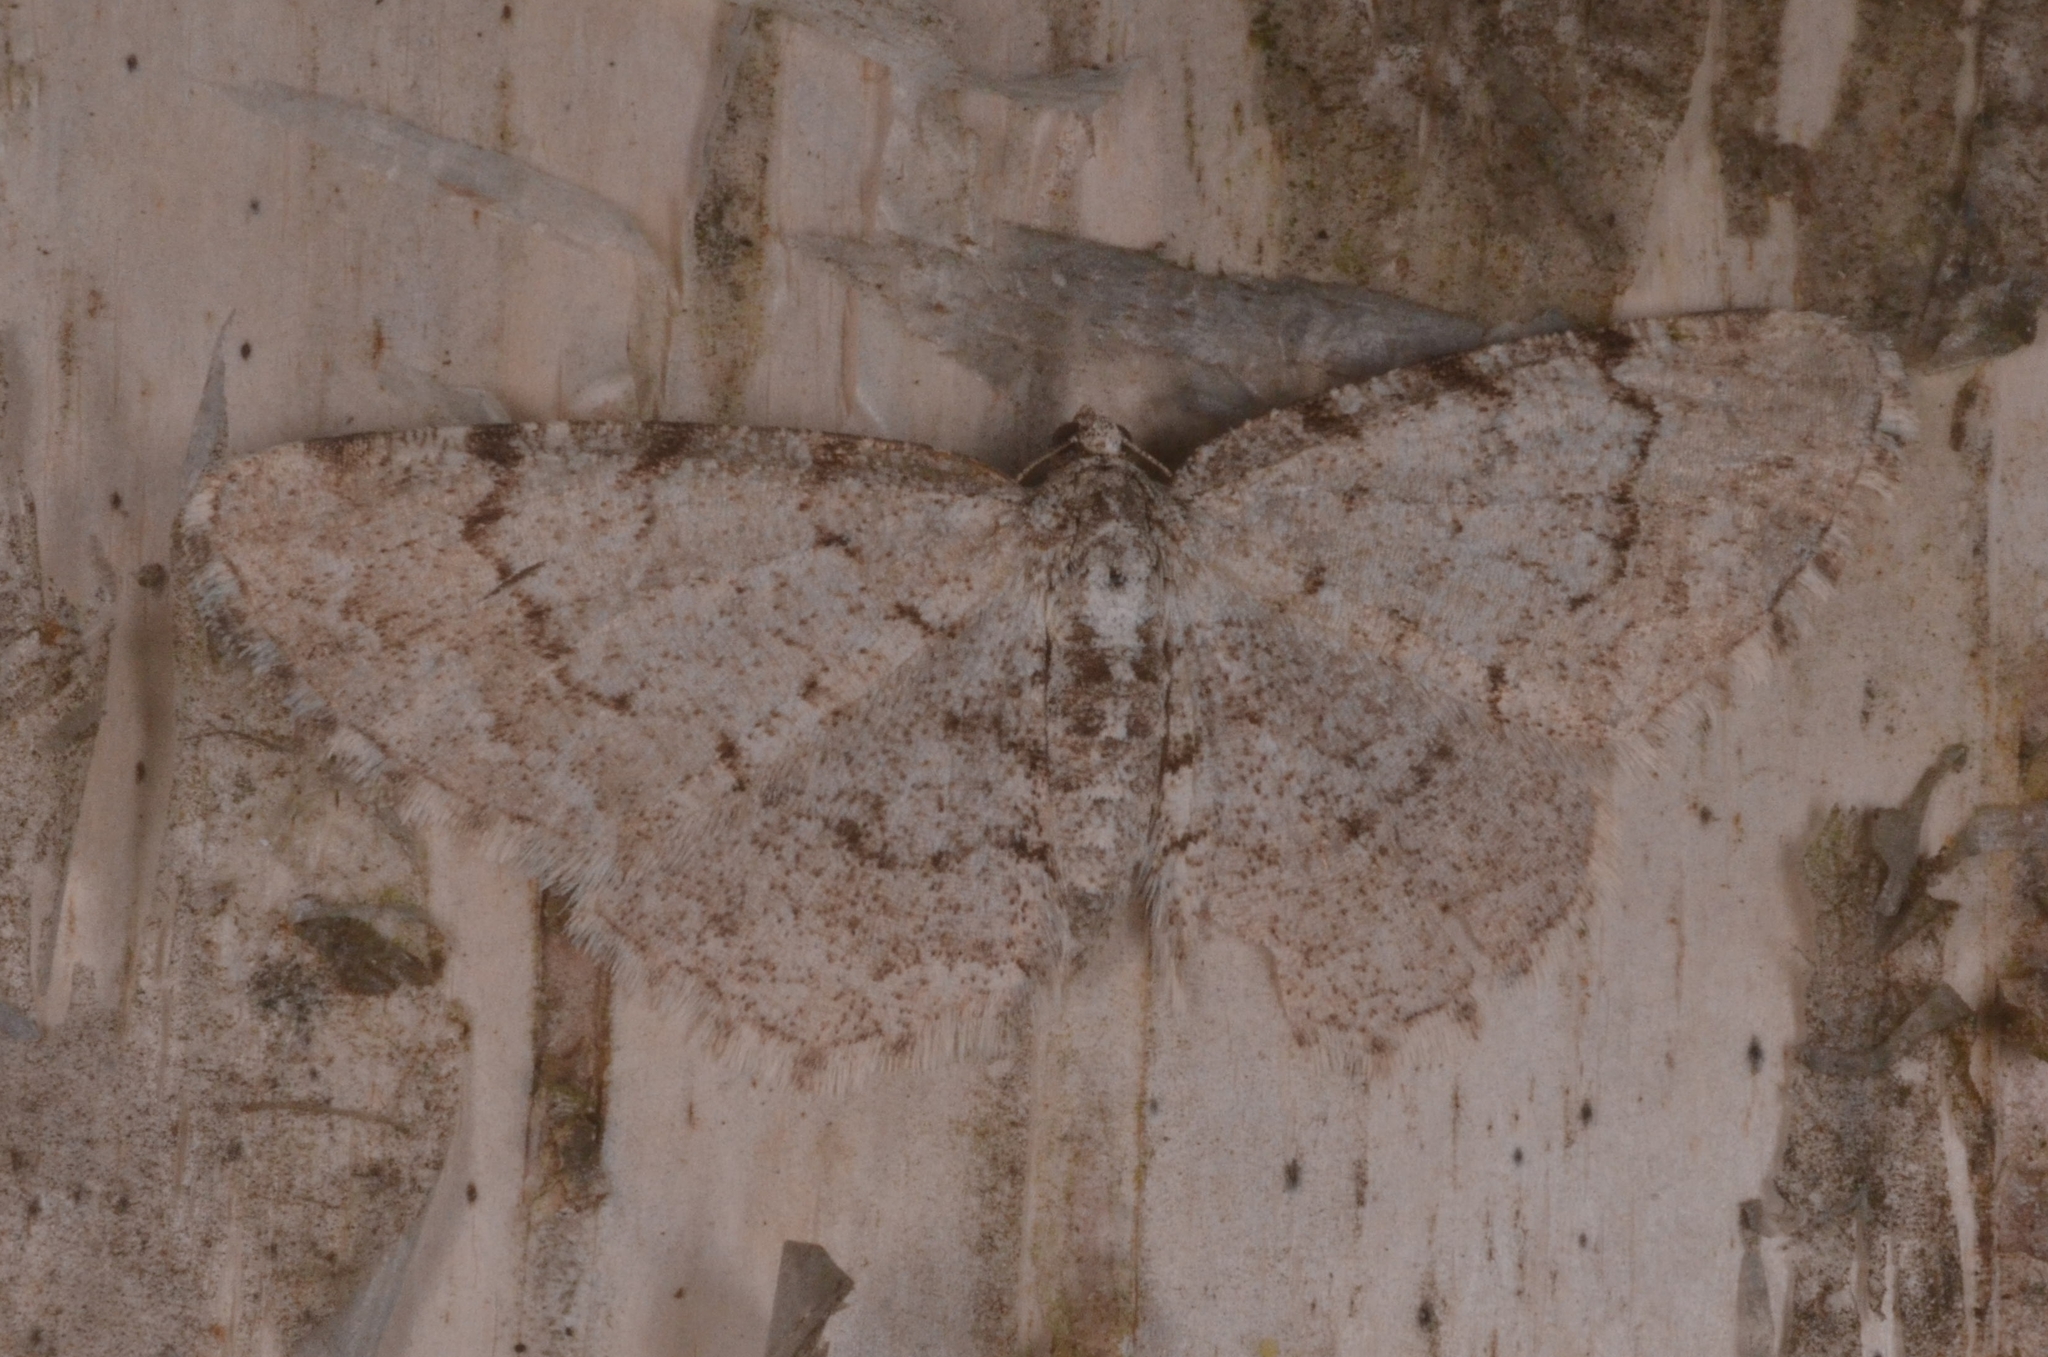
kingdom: Animalia
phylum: Arthropoda
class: Insecta
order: Lepidoptera
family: Geometridae
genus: Aethalura
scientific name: Aethalura punctulata
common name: Grey birch
